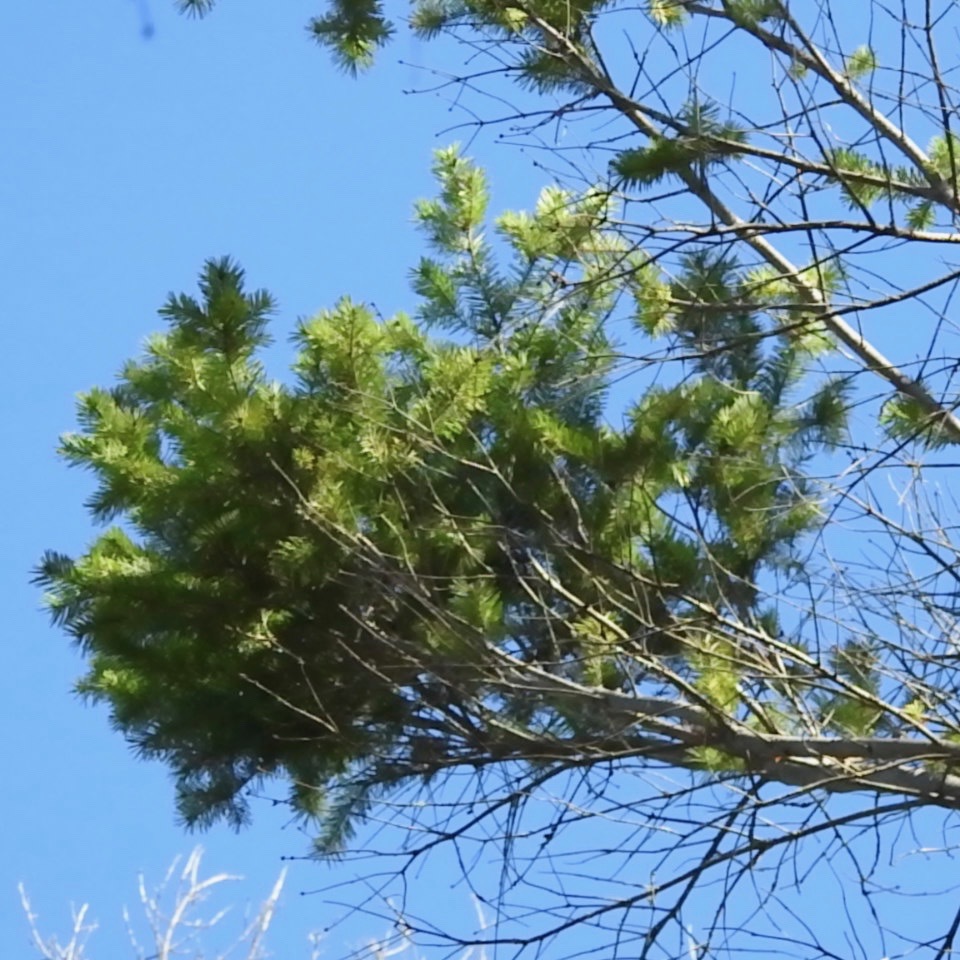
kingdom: Plantae
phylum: Tracheophyta
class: Pinopsida
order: Pinales
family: Pinaceae
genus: Pseudotsuga
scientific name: Pseudotsuga menziesii
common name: Douglas fir
